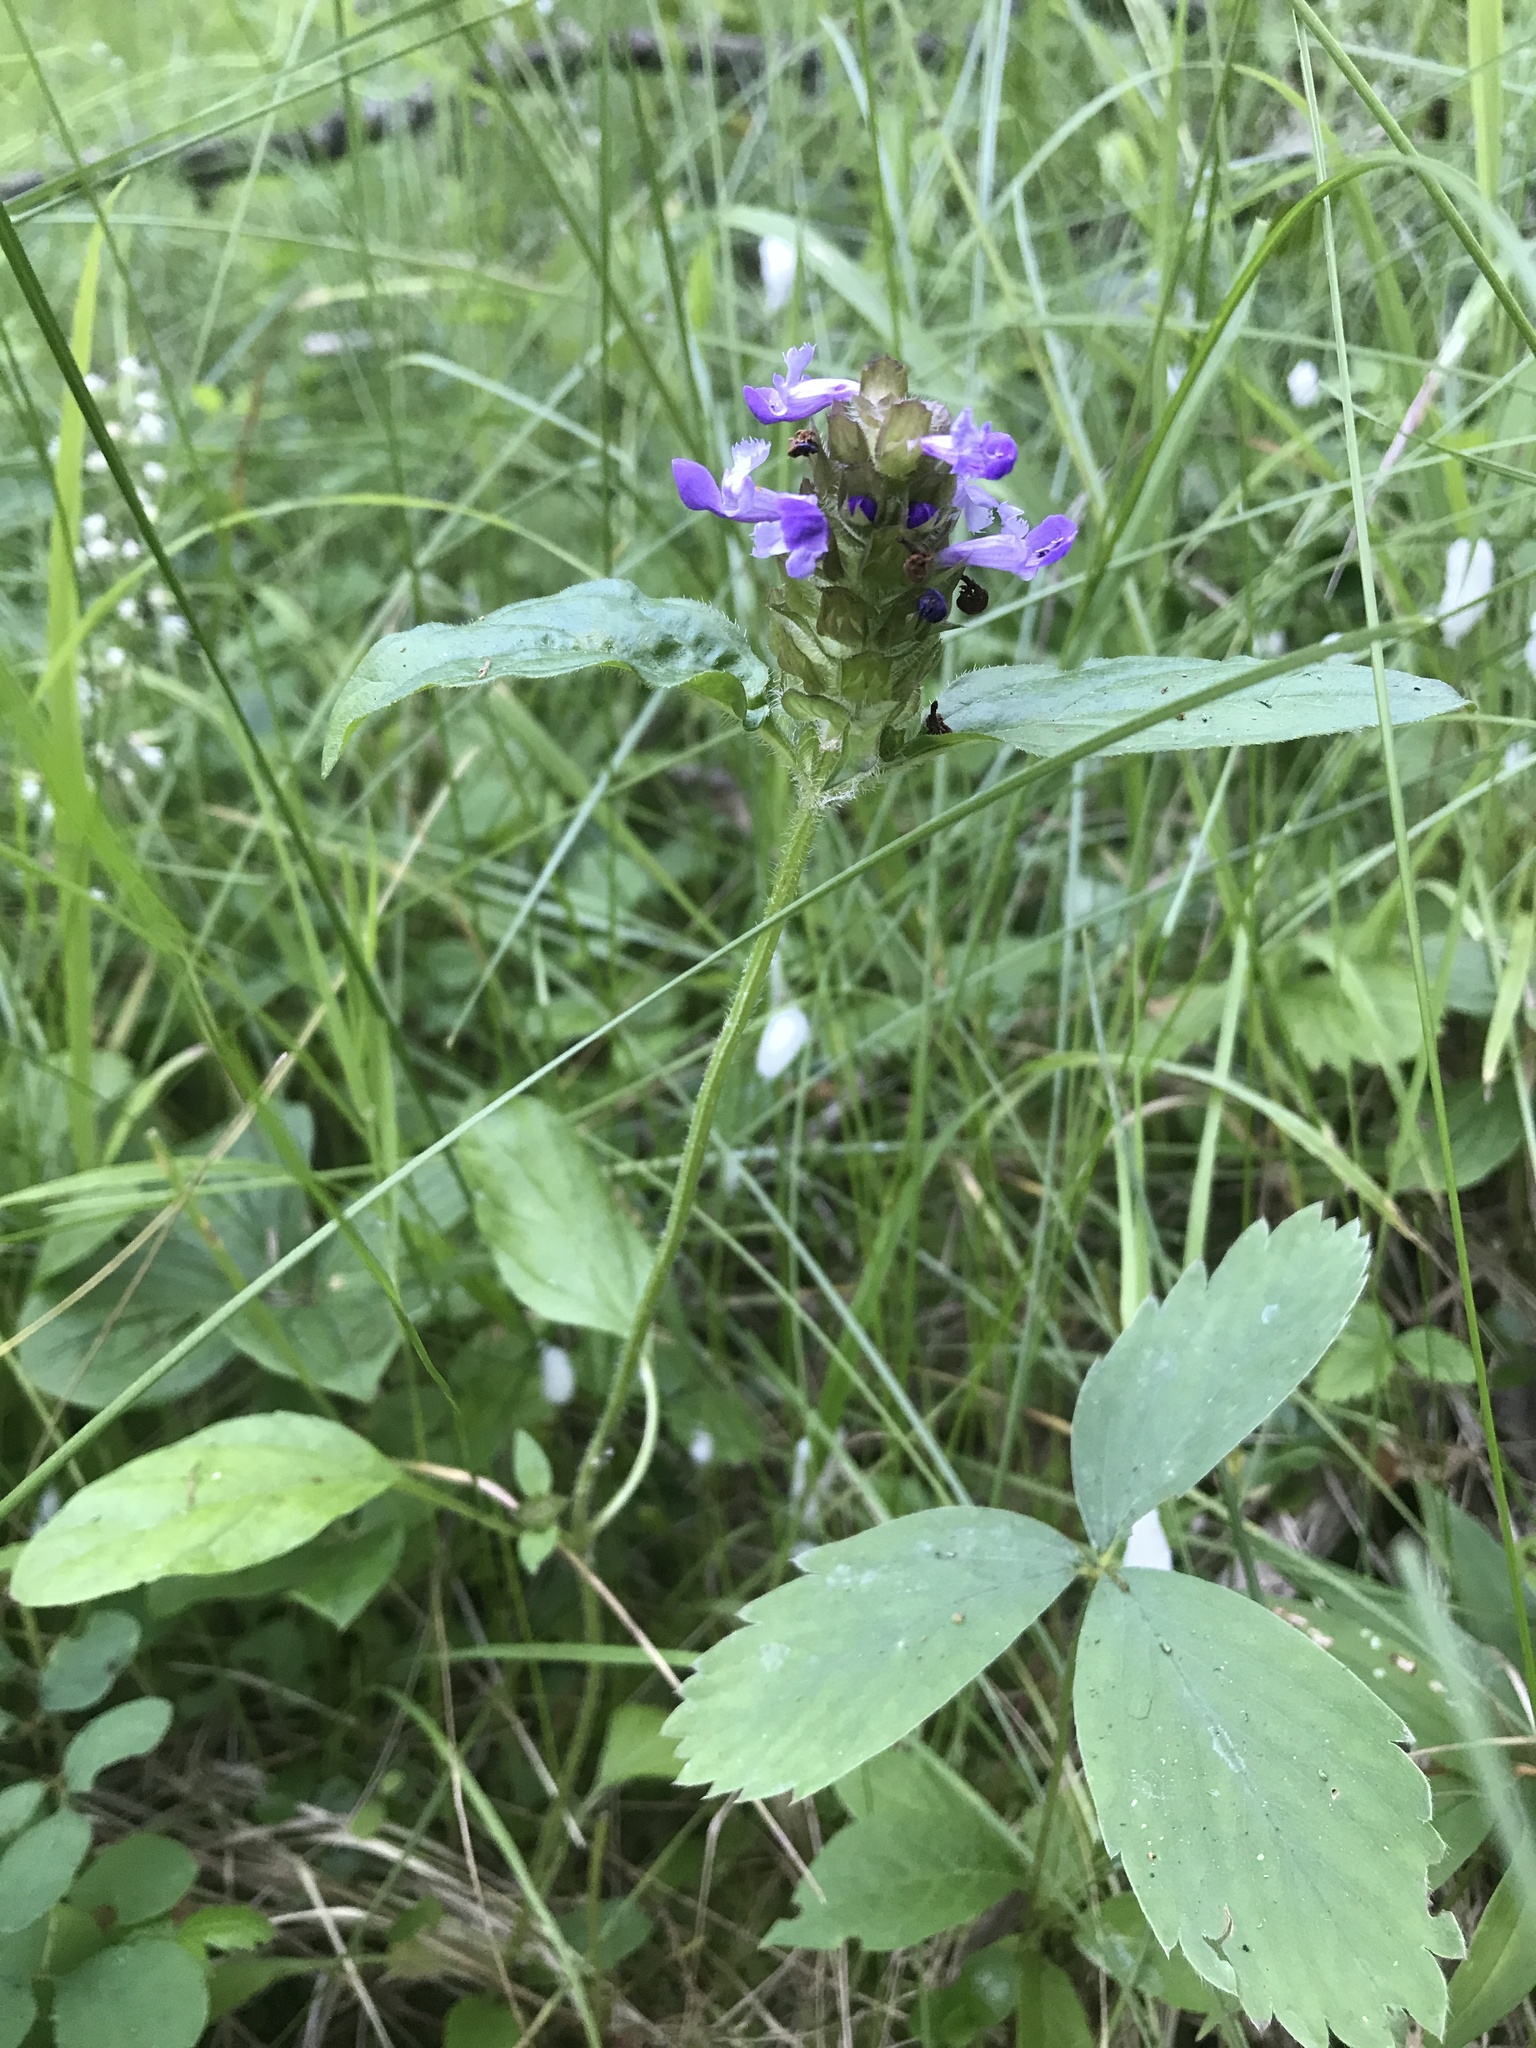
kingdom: Plantae
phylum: Tracheophyta
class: Magnoliopsida
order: Lamiales
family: Lamiaceae
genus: Prunella
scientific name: Prunella vulgaris
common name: Heal-all
